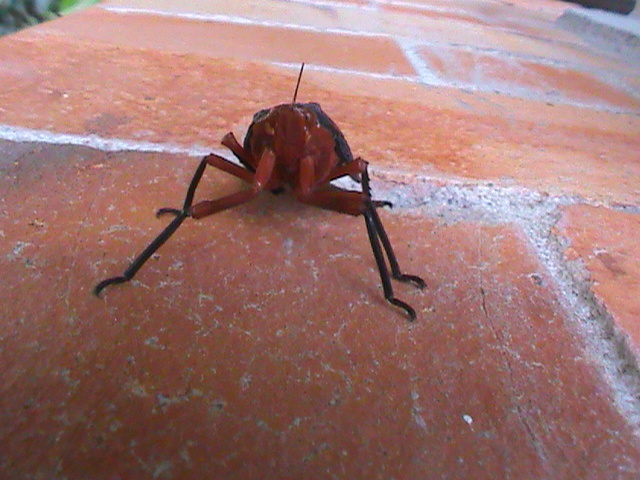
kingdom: Animalia
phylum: Arthropoda
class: Insecta
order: Hemiptera
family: Fulgoridae
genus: Kalidasa
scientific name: Kalidasa lanata
